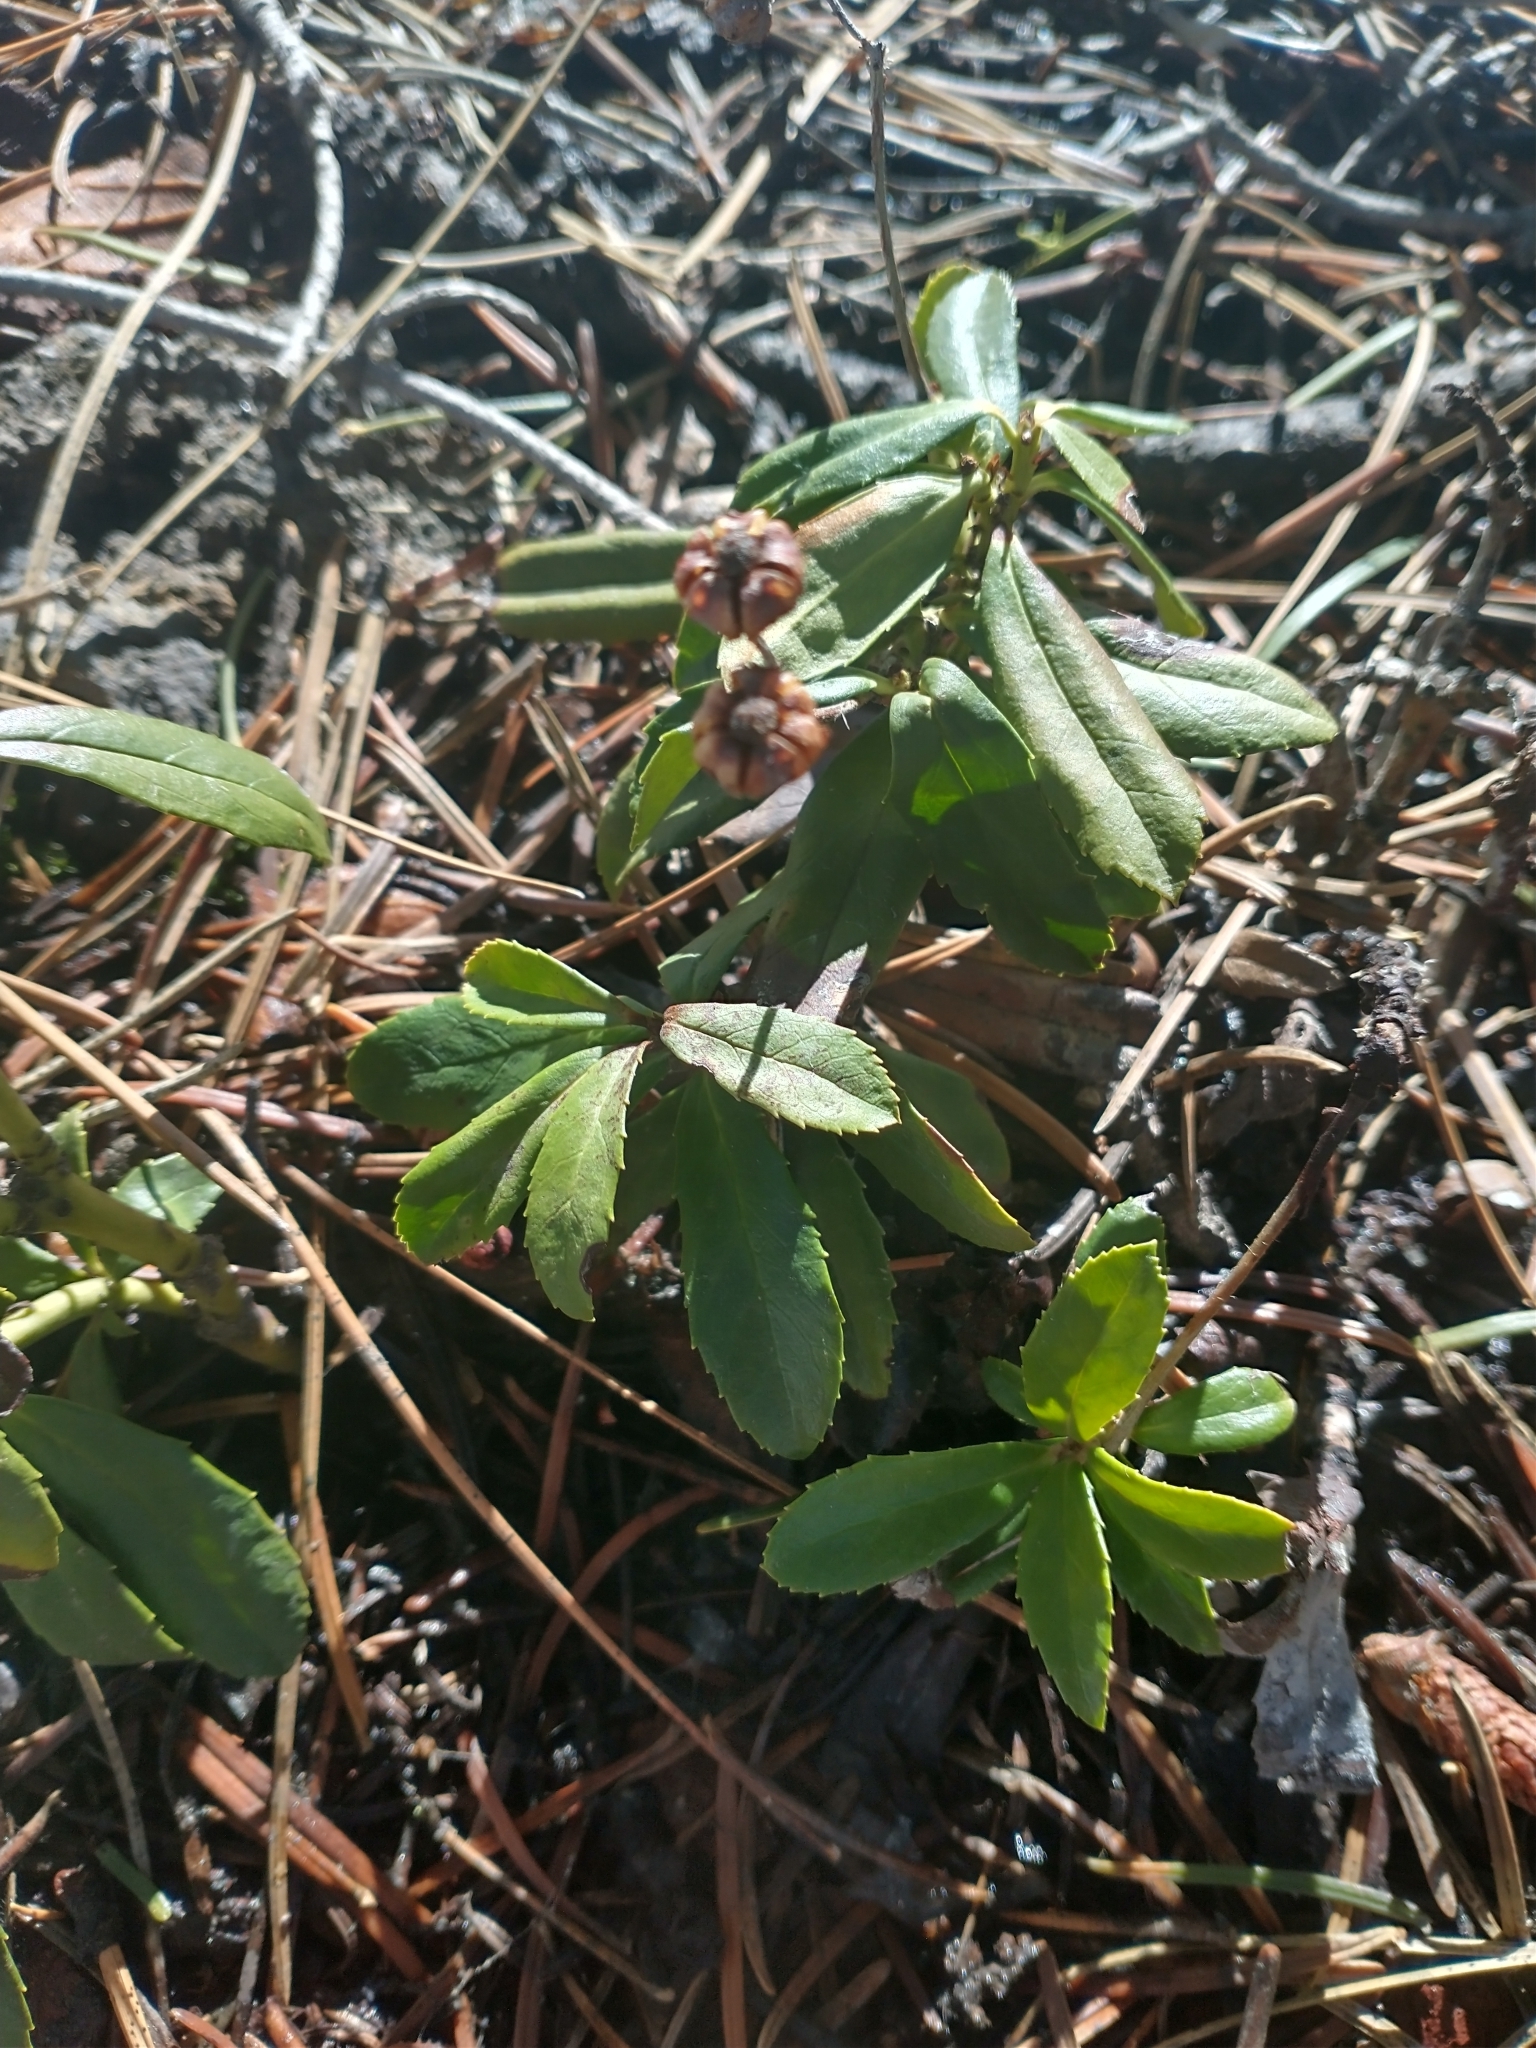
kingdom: Plantae
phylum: Tracheophyta
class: Magnoliopsida
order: Ericales
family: Ericaceae
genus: Chimaphila
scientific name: Chimaphila umbellata
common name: Pipsissewa
